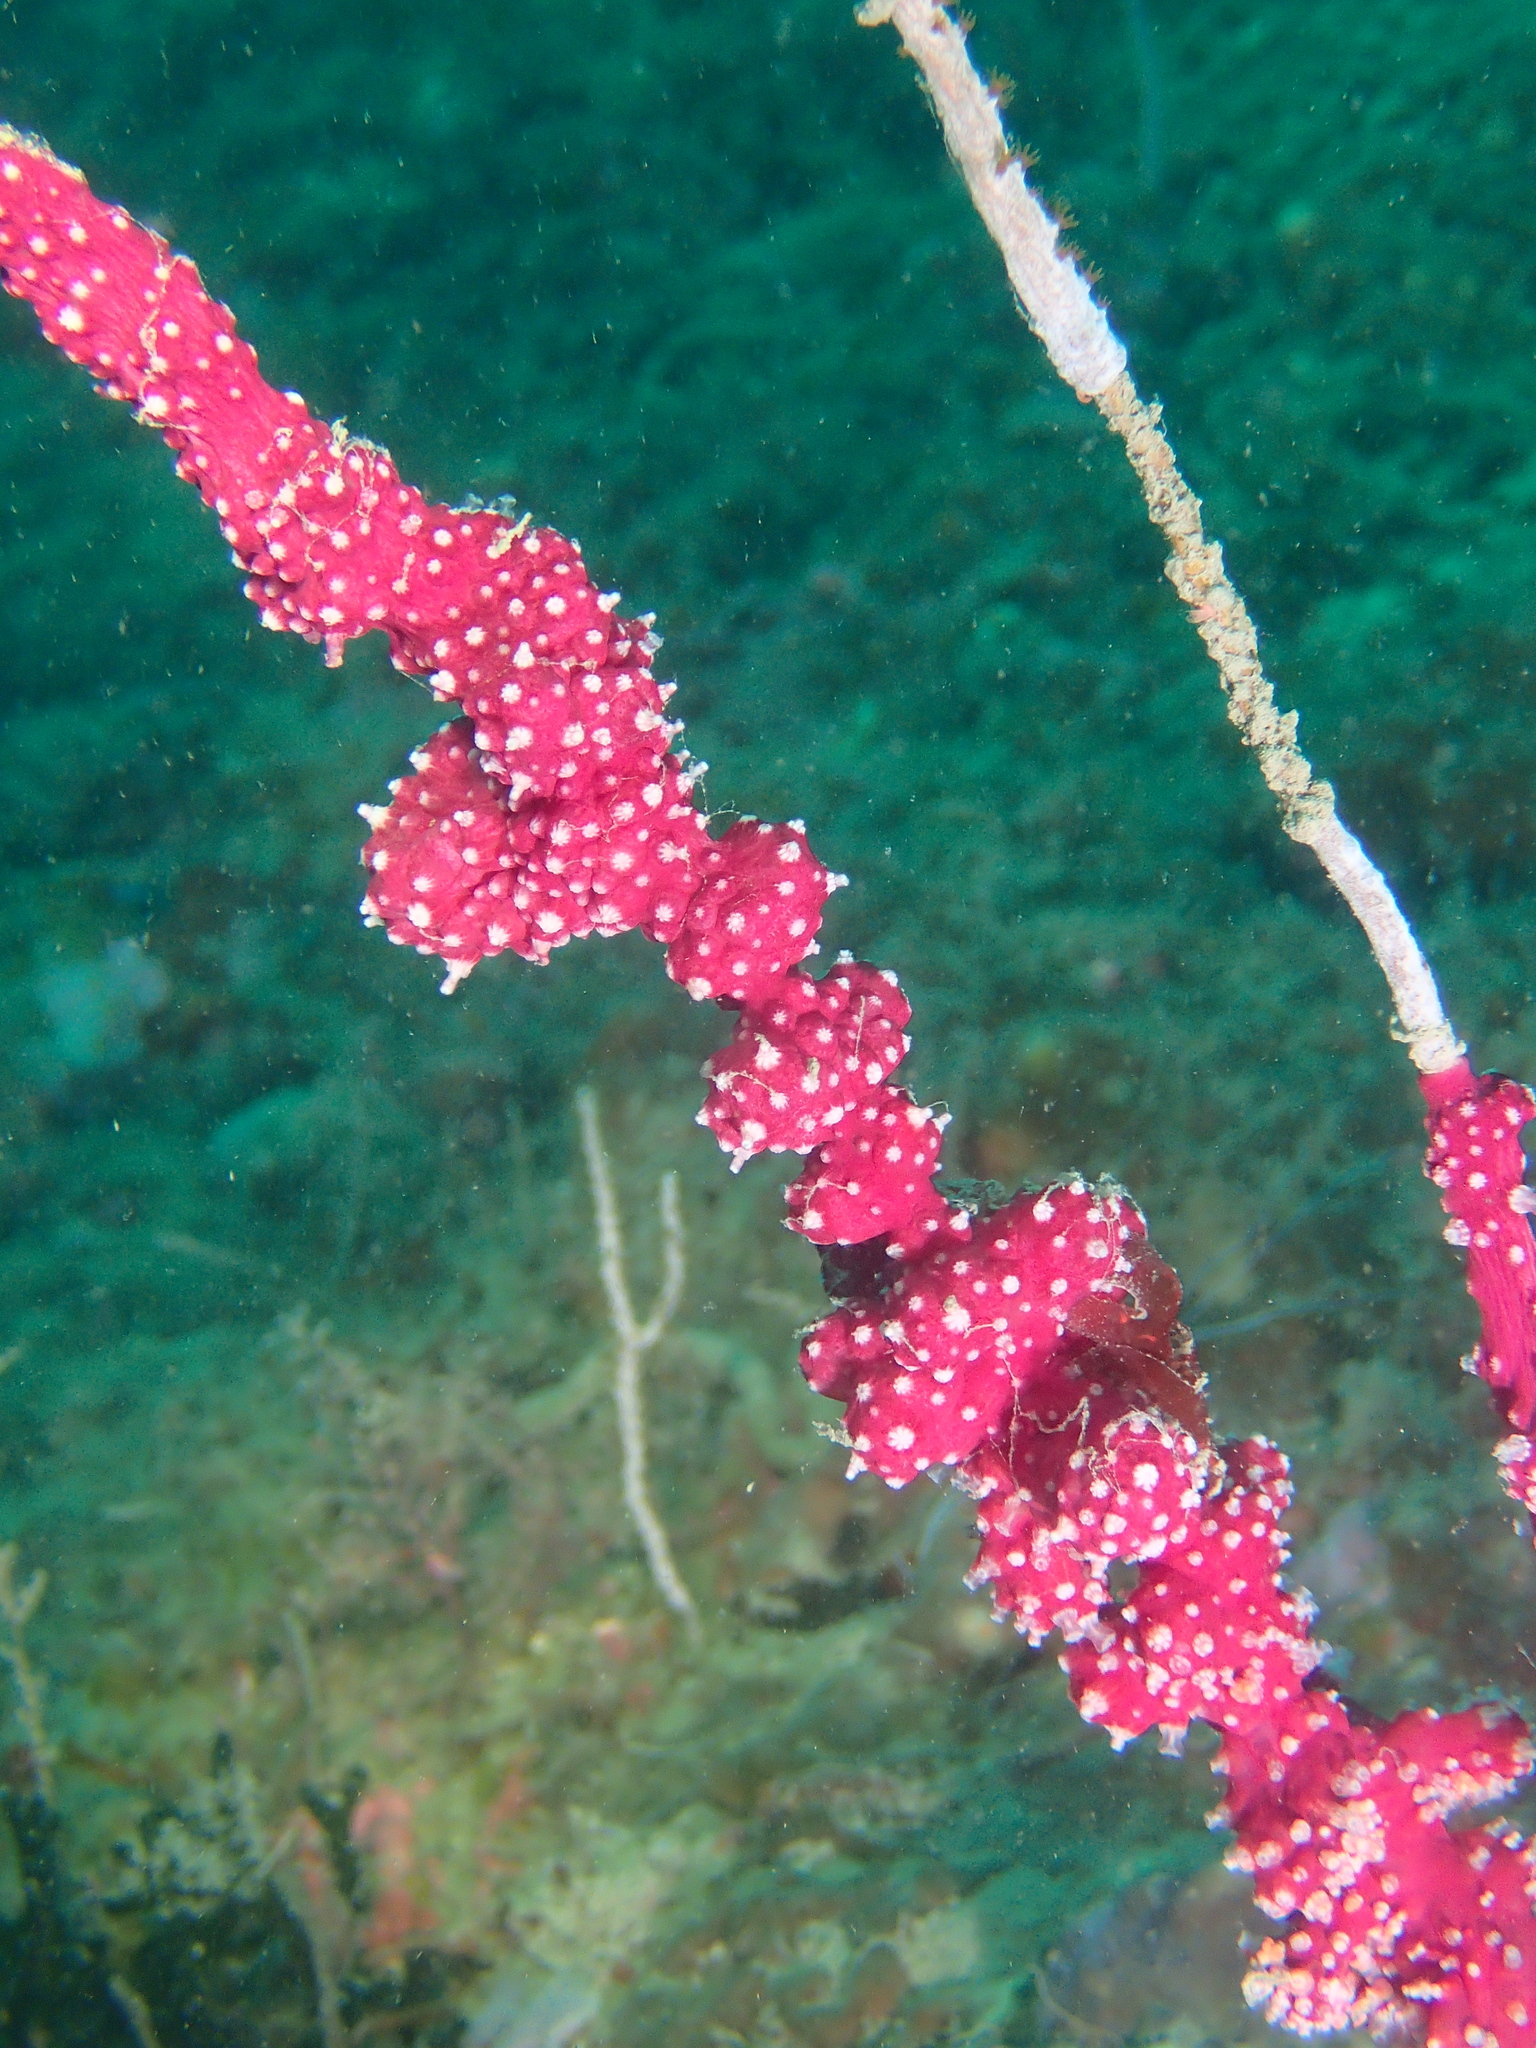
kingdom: Animalia
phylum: Cnidaria
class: Anthozoa
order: Malacalcyonacea
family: Alcyoniidae
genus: Alcyonium
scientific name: Alcyonium coralloides
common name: Soft coral
